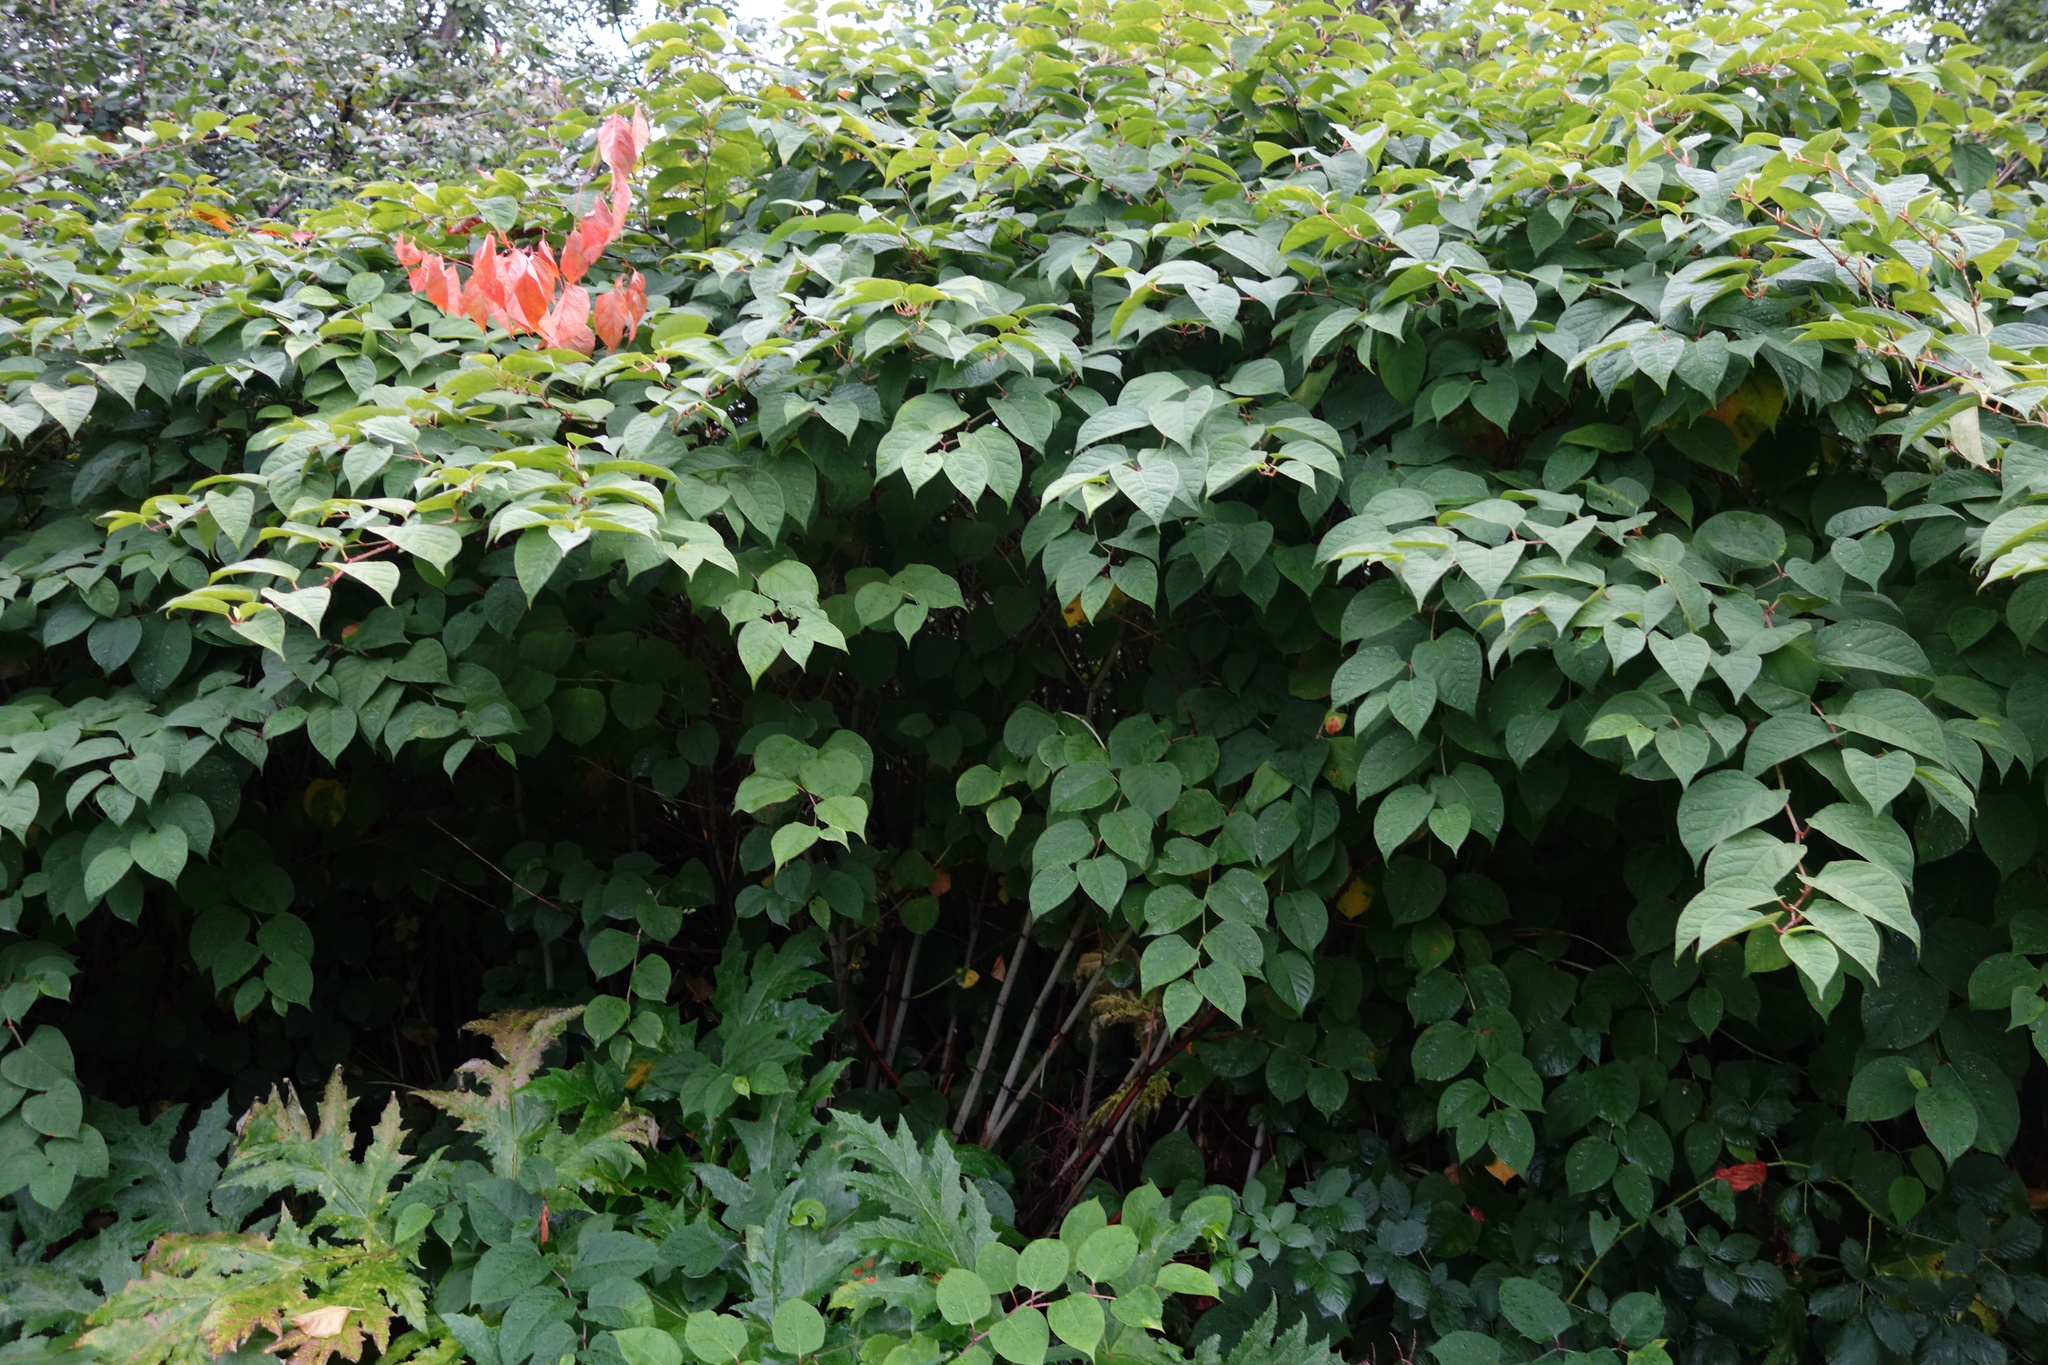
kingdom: Plantae
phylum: Tracheophyta
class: Magnoliopsida
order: Caryophyllales
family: Polygonaceae
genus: Reynoutria
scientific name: Reynoutria japonica
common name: Japanese knotweed
